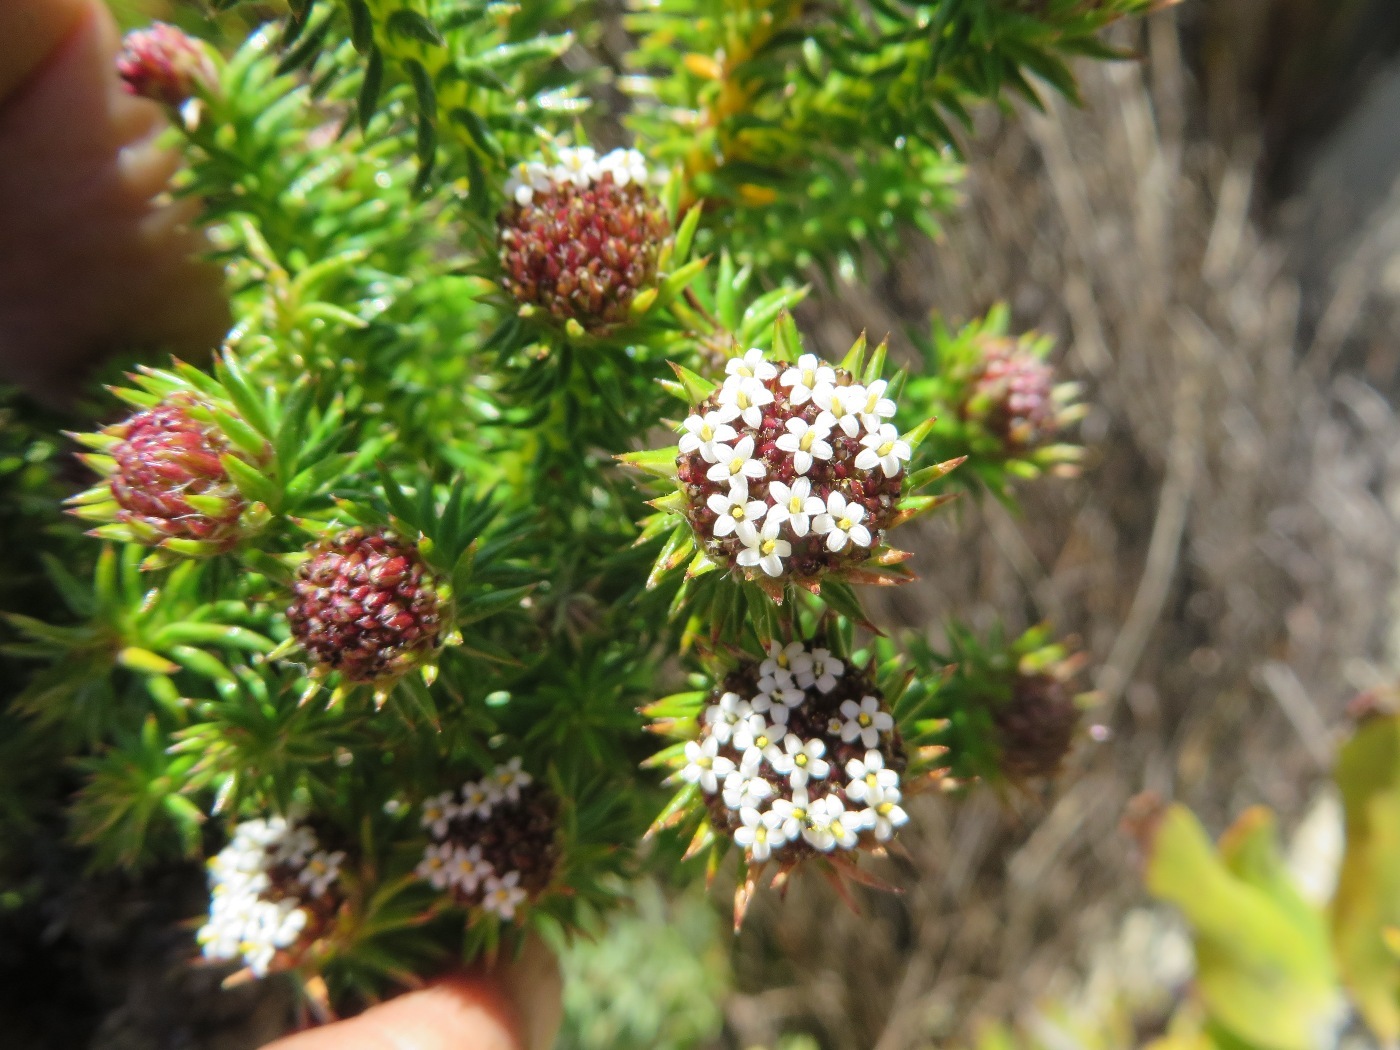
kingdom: Plantae
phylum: Tracheophyta
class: Magnoliopsida
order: Asterales
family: Asteraceae
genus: Stoebe
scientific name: Stoebe aethiopica
